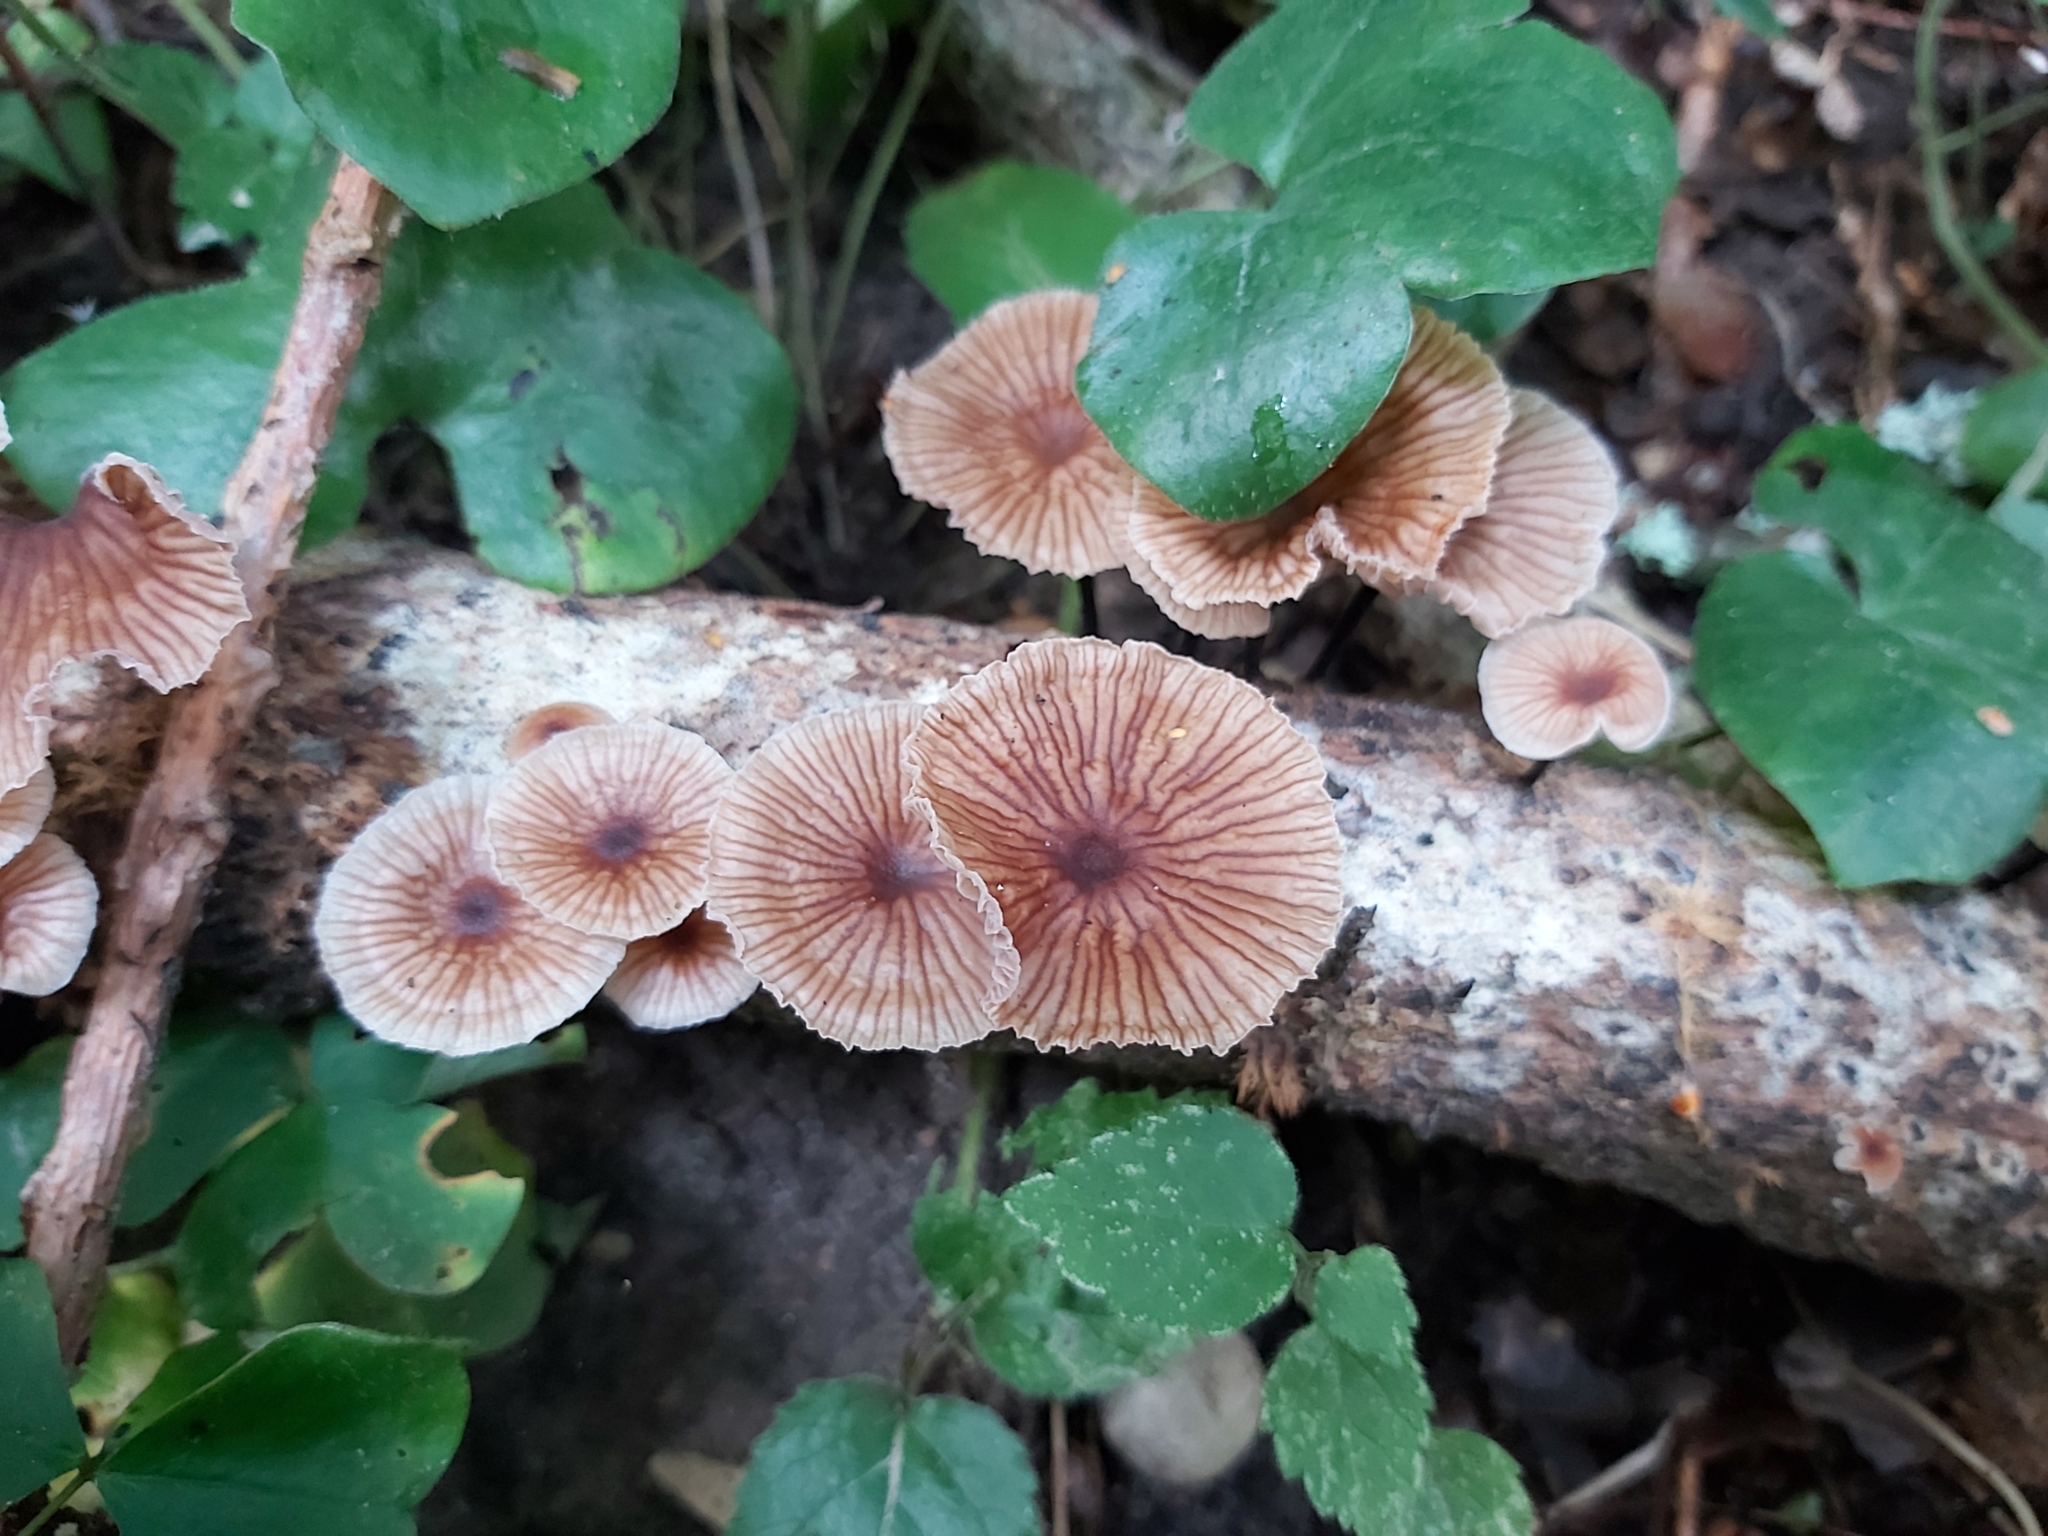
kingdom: Fungi
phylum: Basidiomycota
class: Agaricomycetes
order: Agaricales
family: Omphalotaceae
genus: Gymnopus
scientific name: Gymnopus foetidus
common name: Foetid parachute
